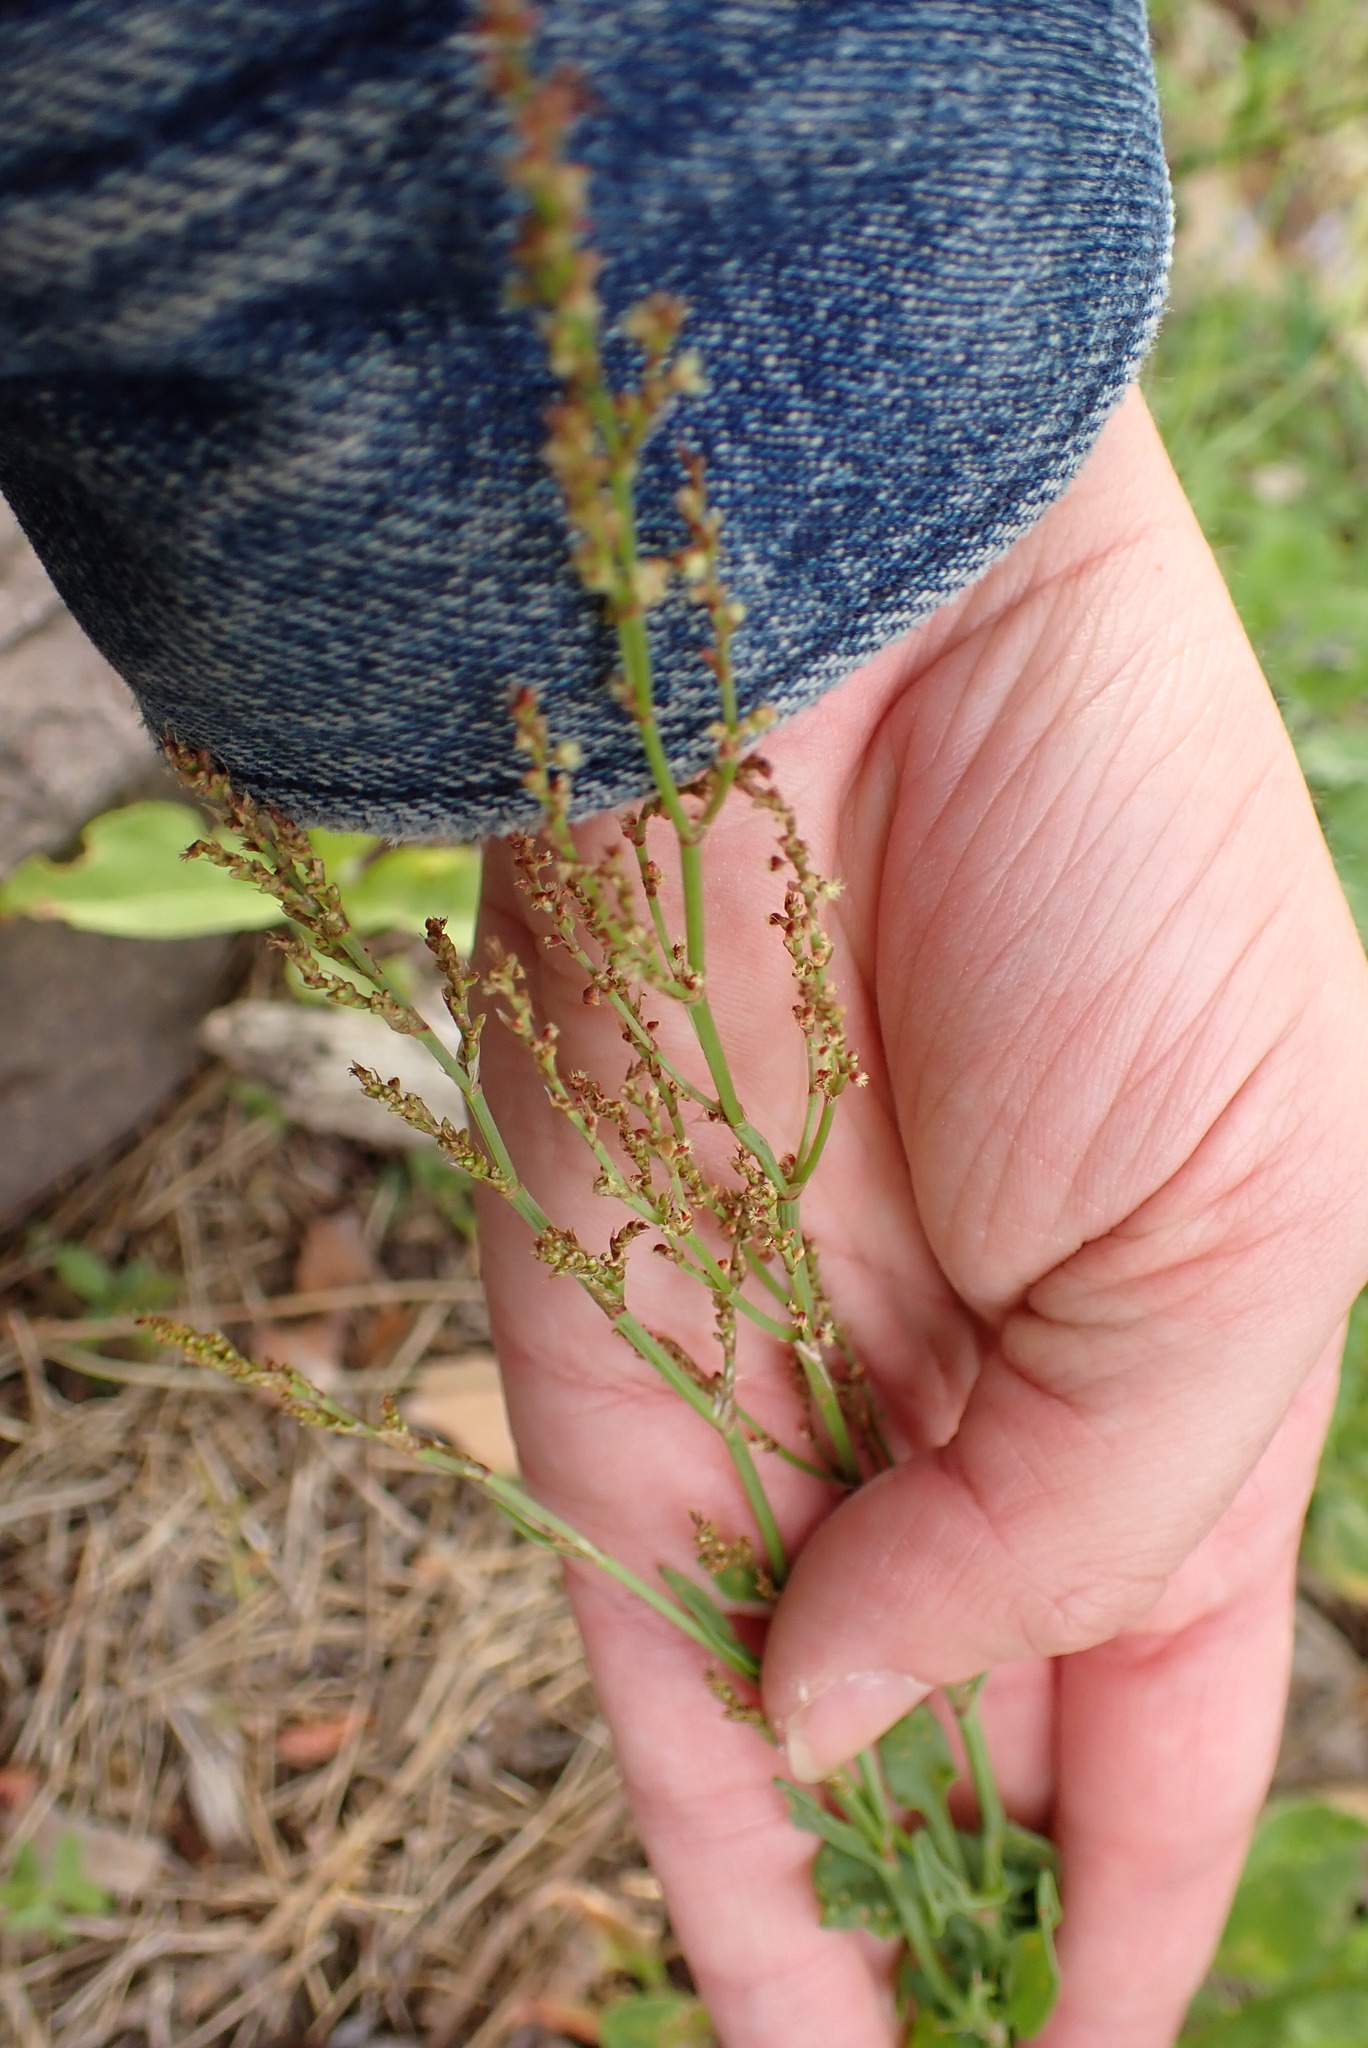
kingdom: Plantae
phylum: Tracheophyta
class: Magnoliopsida
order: Caryophyllales
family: Polygonaceae
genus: Rumex
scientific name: Rumex acetosella
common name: Common sheep sorrel
